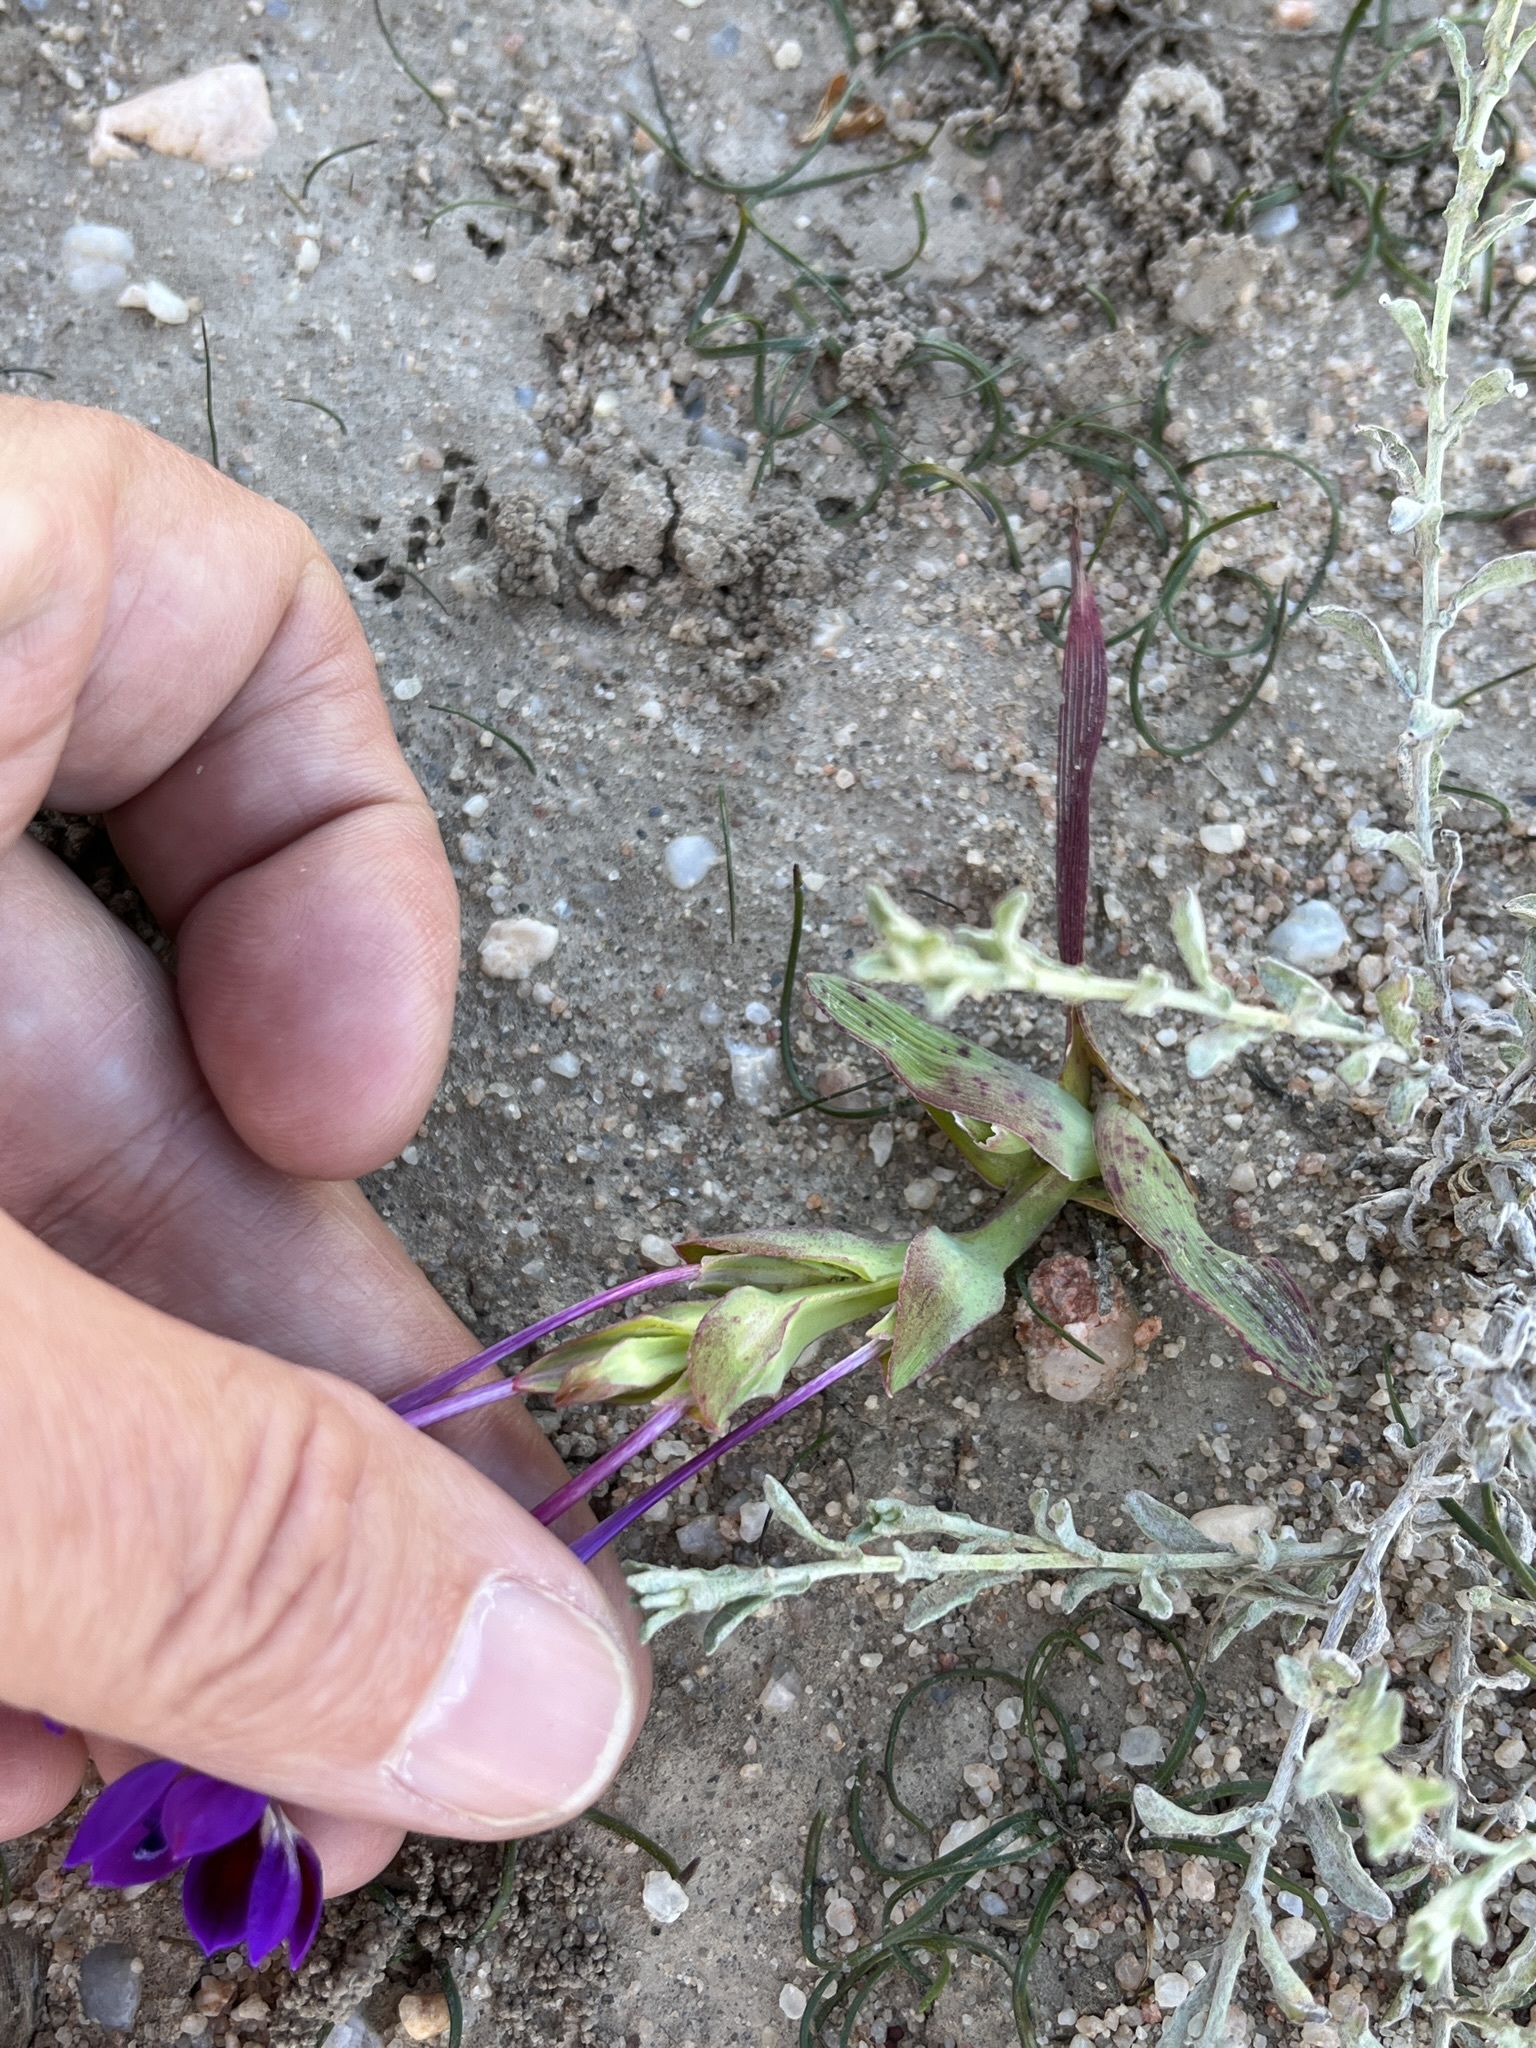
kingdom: Plantae
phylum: Tracheophyta
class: Liliopsida
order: Asparagales
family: Iridaceae
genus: Lapeirousia
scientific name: Lapeirousia jacquinii
